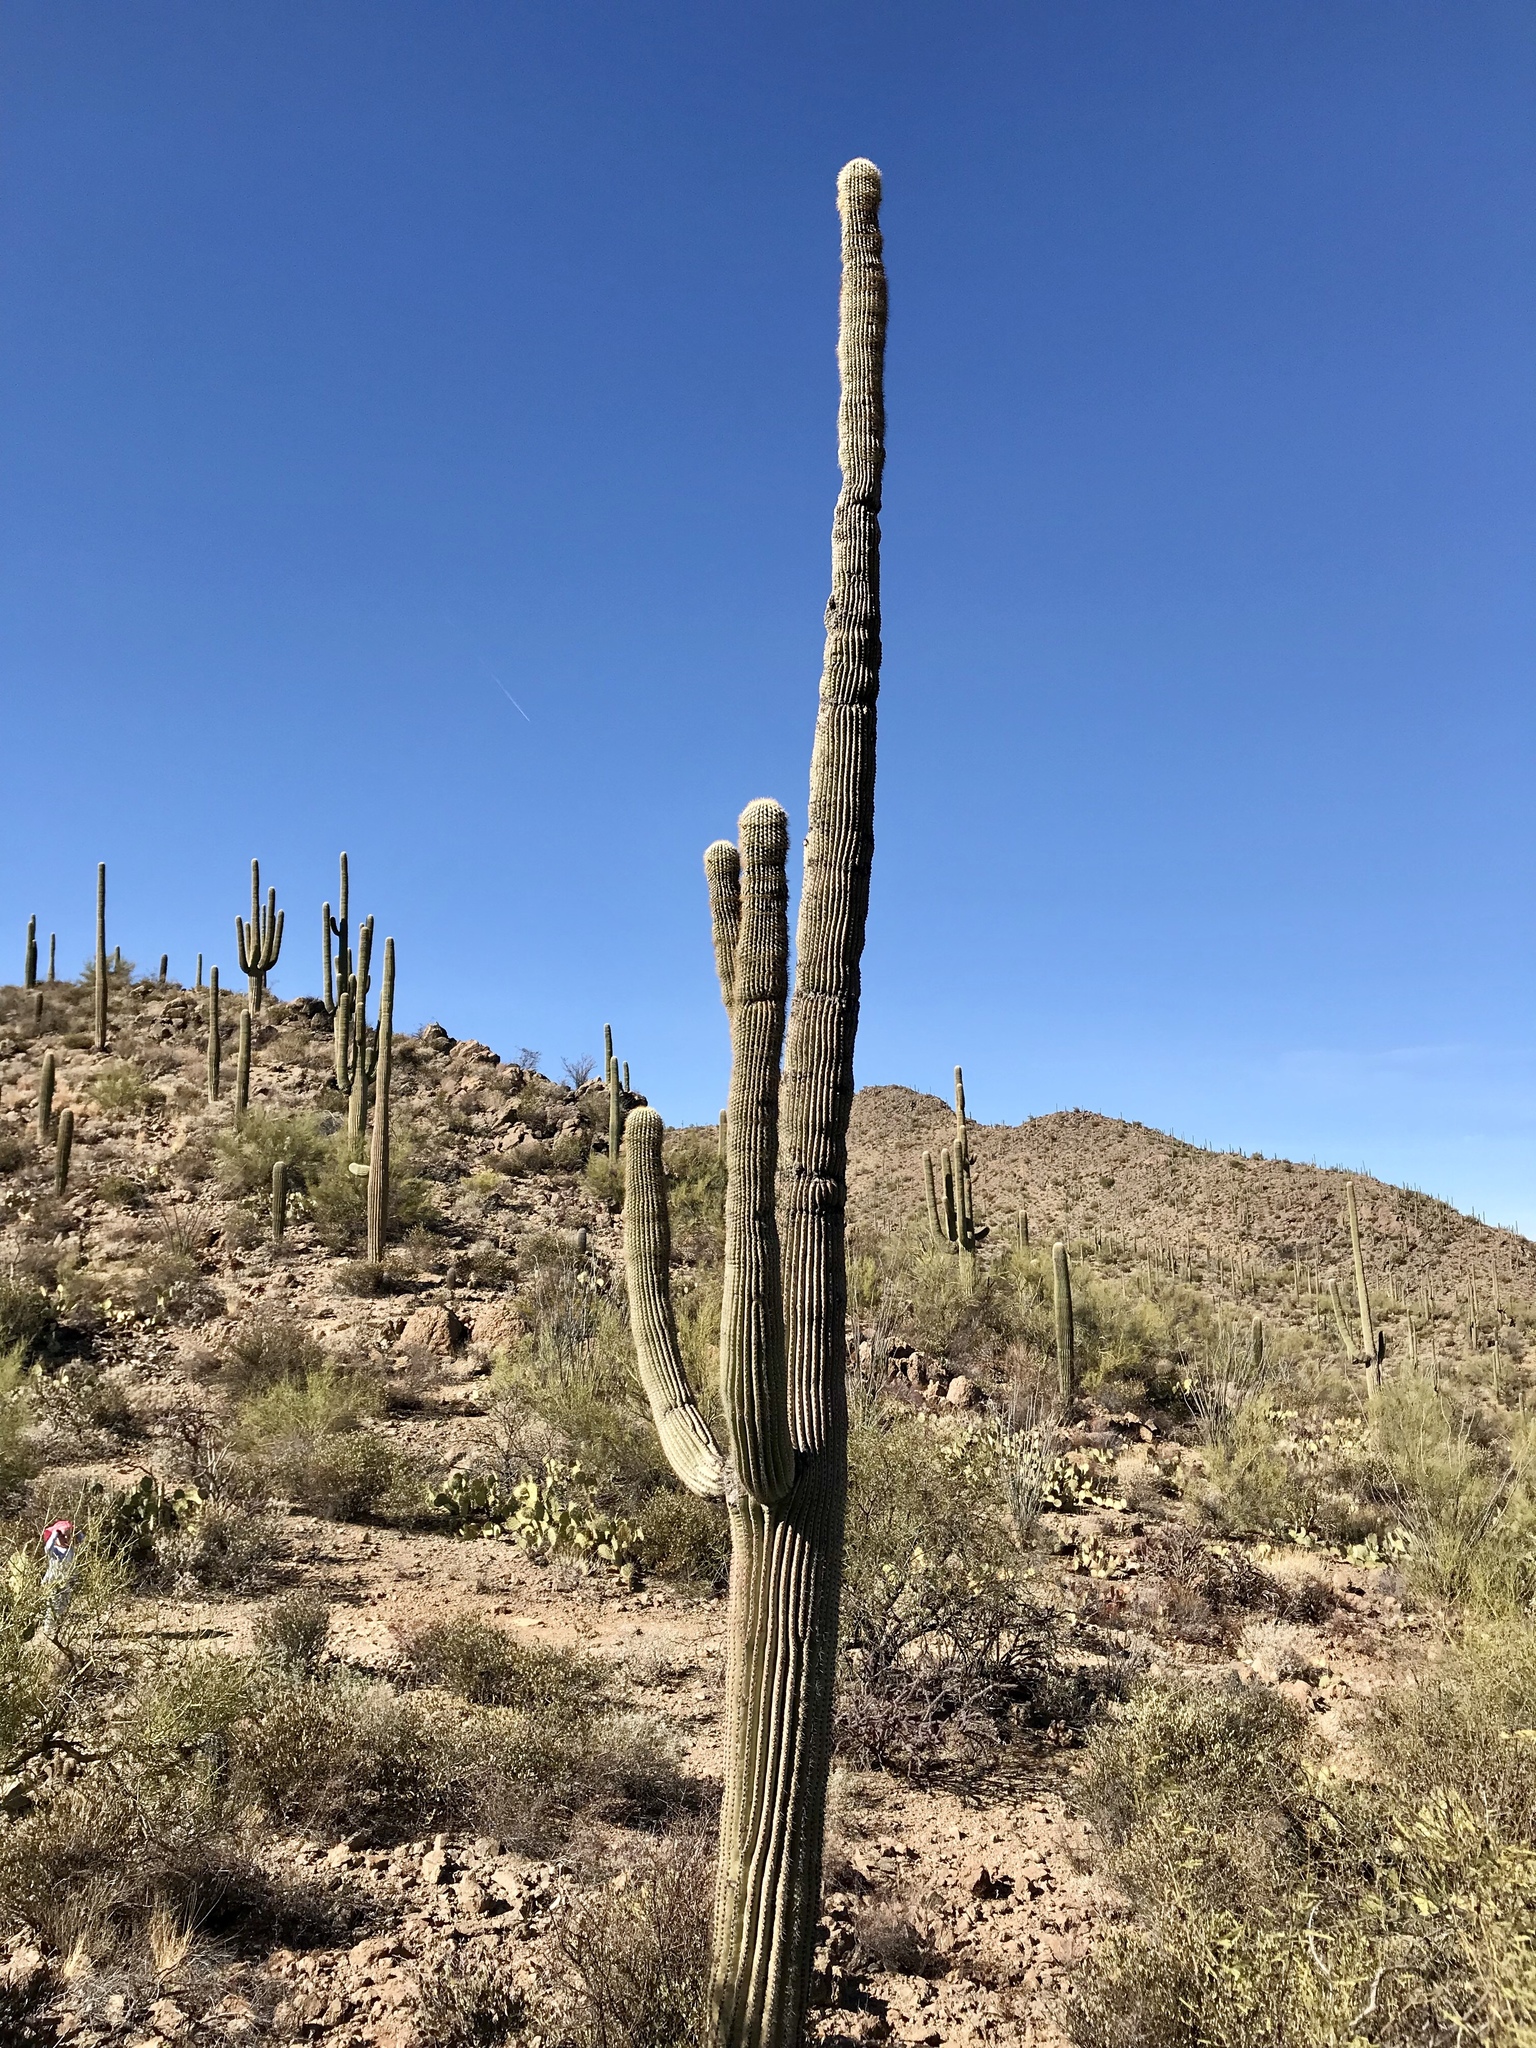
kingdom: Plantae
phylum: Tracheophyta
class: Magnoliopsida
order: Caryophyllales
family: Cactaceae
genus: Carnegiea
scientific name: Carnegiea gigantea
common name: Saguaro
